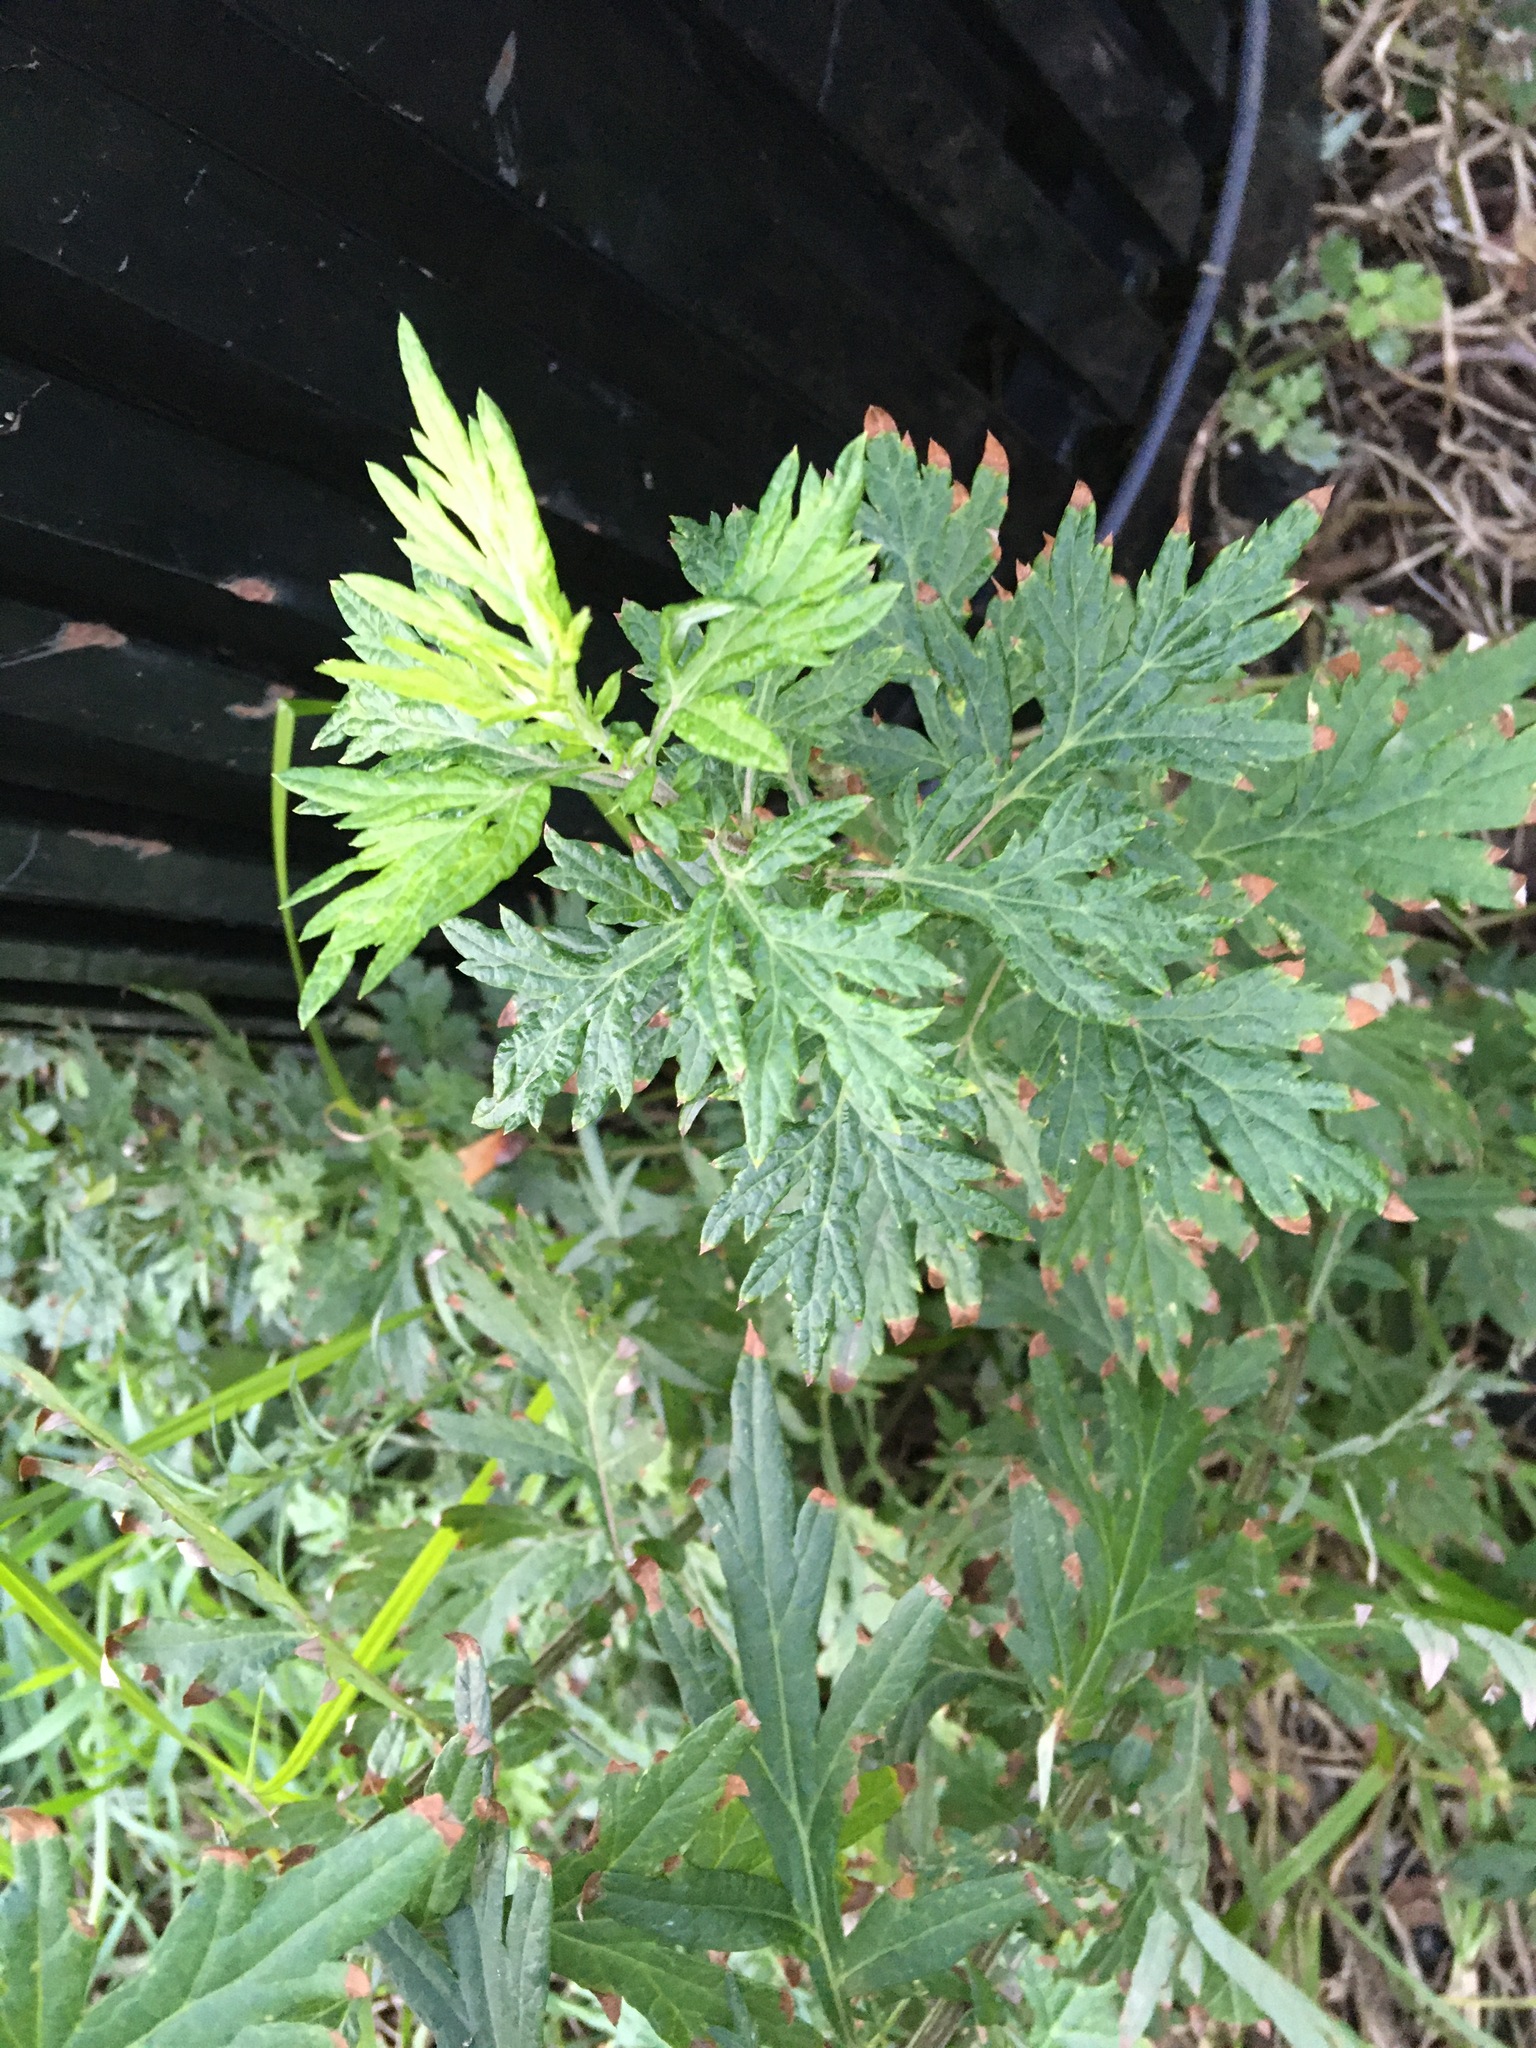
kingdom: Plantae
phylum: Tracheophyta
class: Magnoliopsida
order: Asterales
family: Asteraceae
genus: Artemisia
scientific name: Artemisia vulgaris
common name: Mugwort
